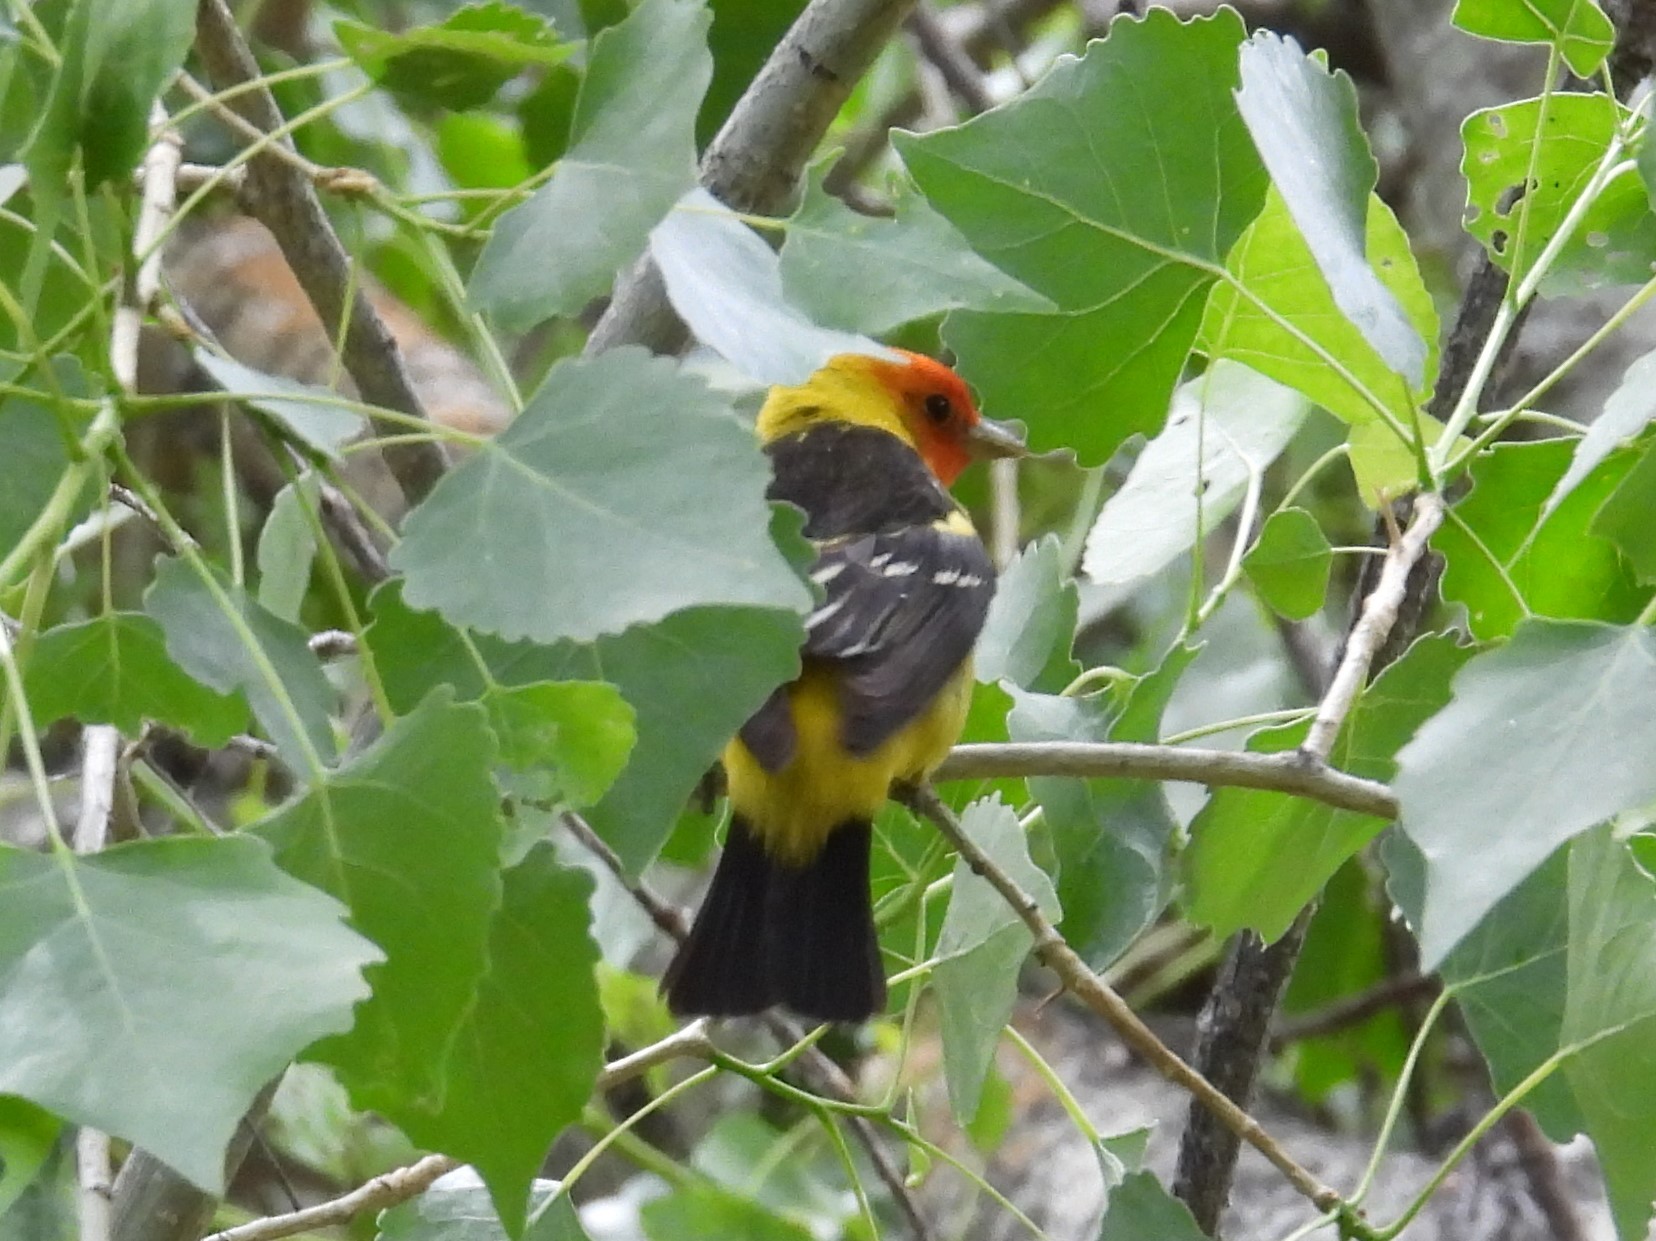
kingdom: Animalia
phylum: Chordata
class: Aves
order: Passeriformes
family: Cardinalidae
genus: Piranga
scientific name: Piranga ludoviciana
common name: Western tanager
